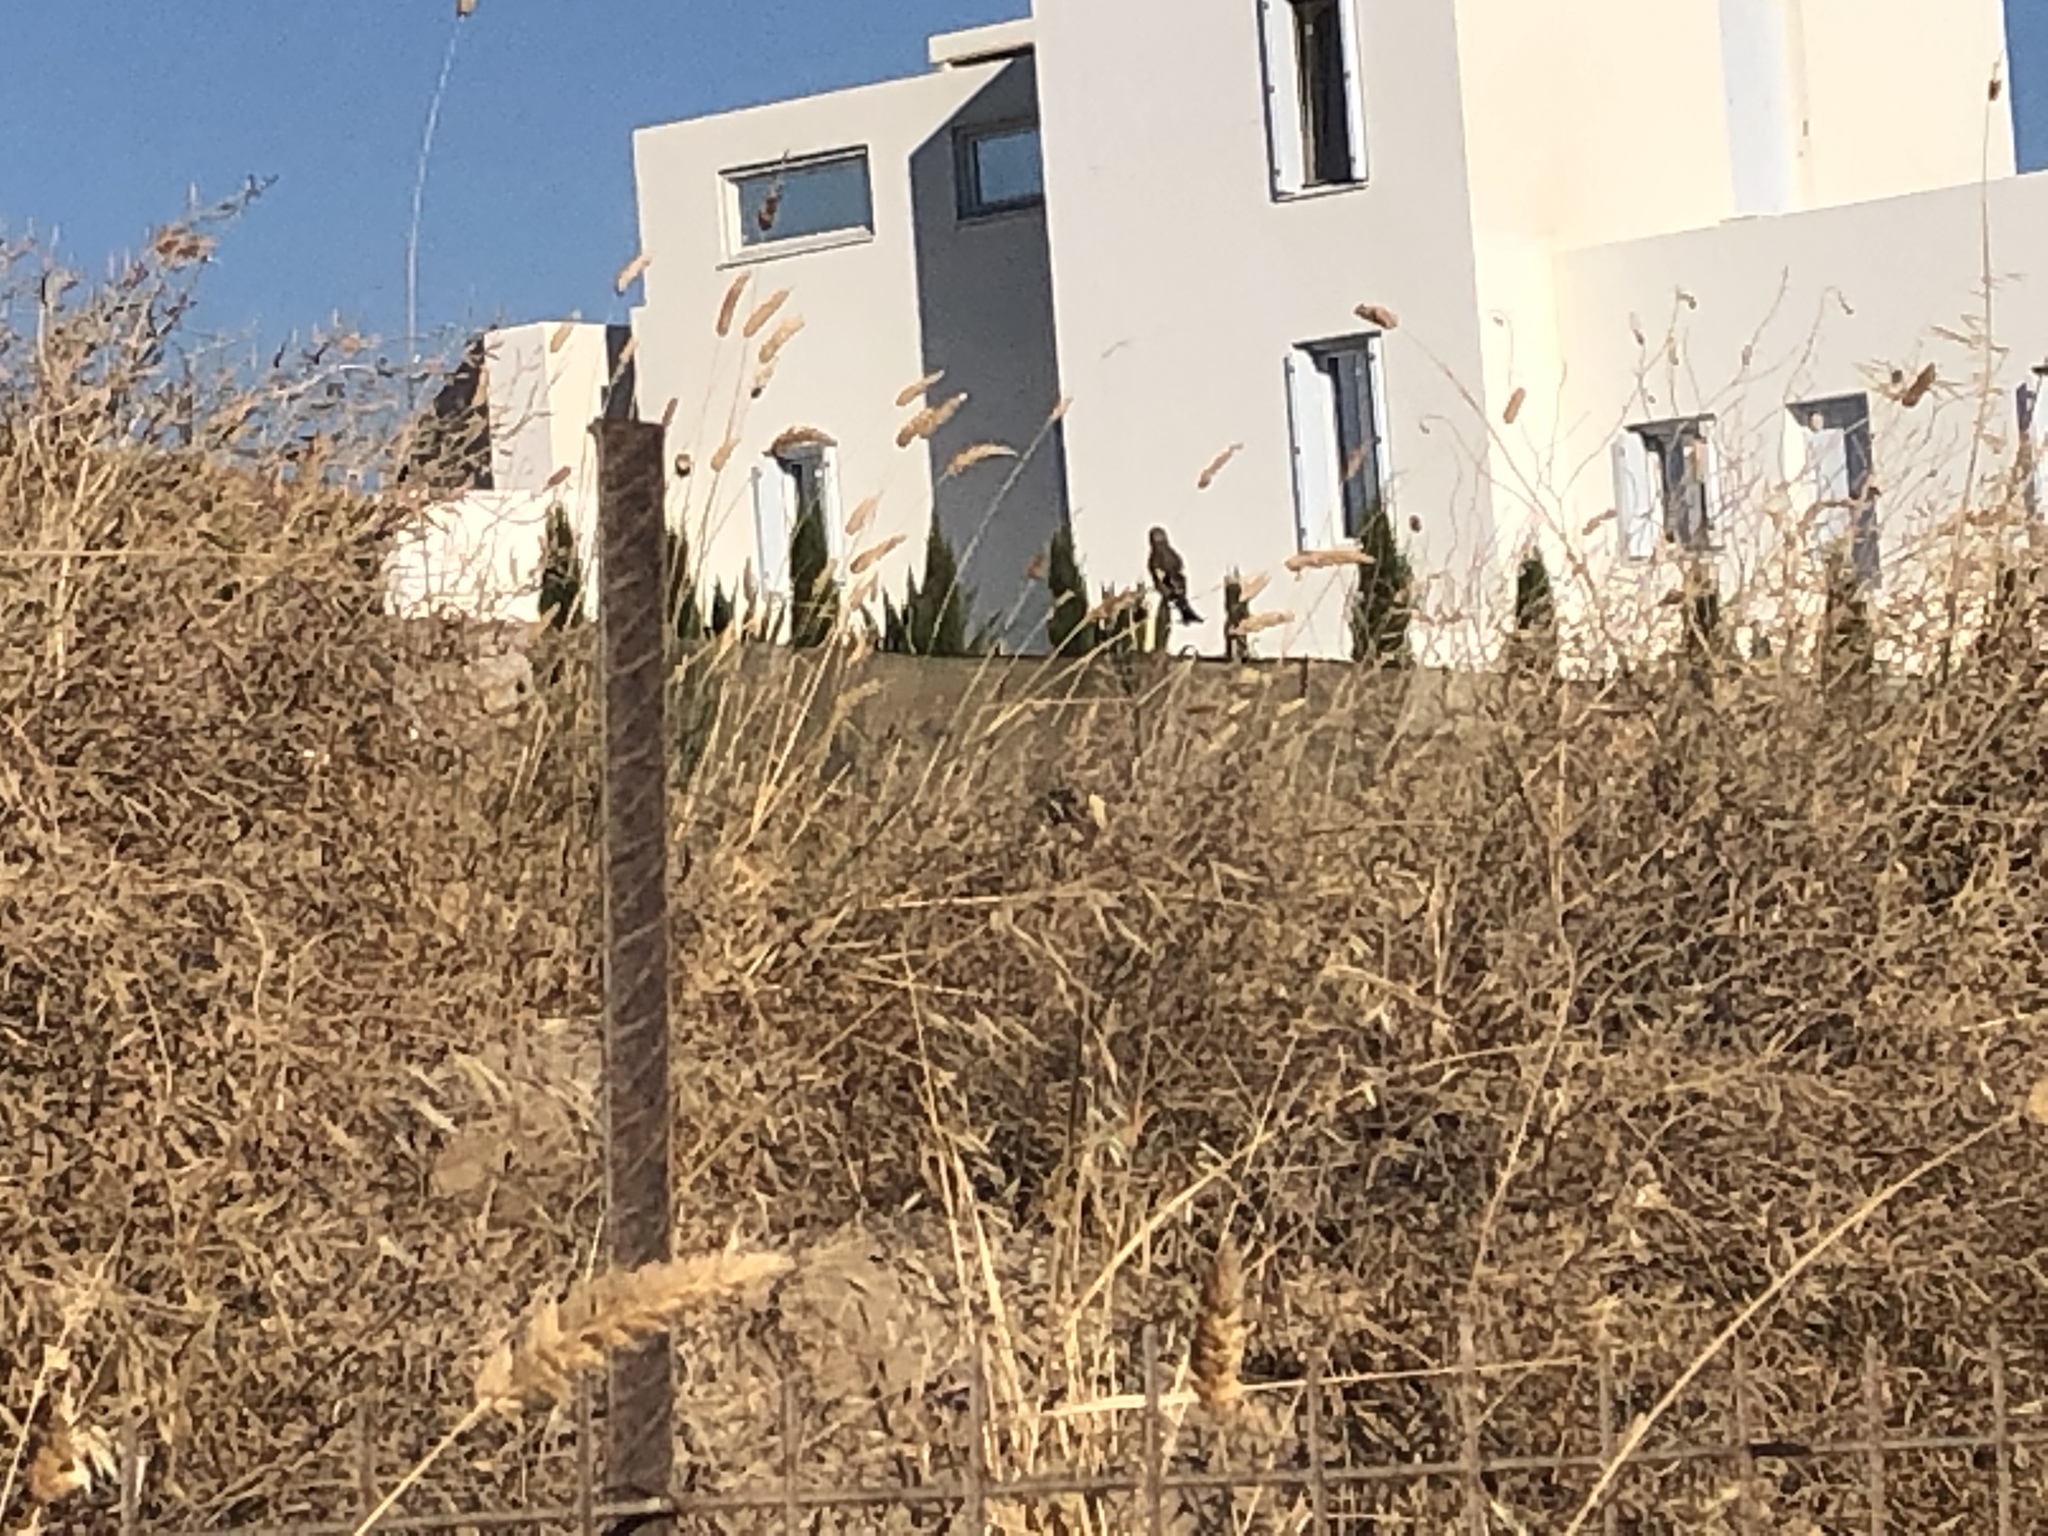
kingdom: Animalia
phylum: Chordata
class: Aves
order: Passeriformes
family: Fringillidae
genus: Carduelis
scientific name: Carduelis carduelis
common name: European goldfinch
